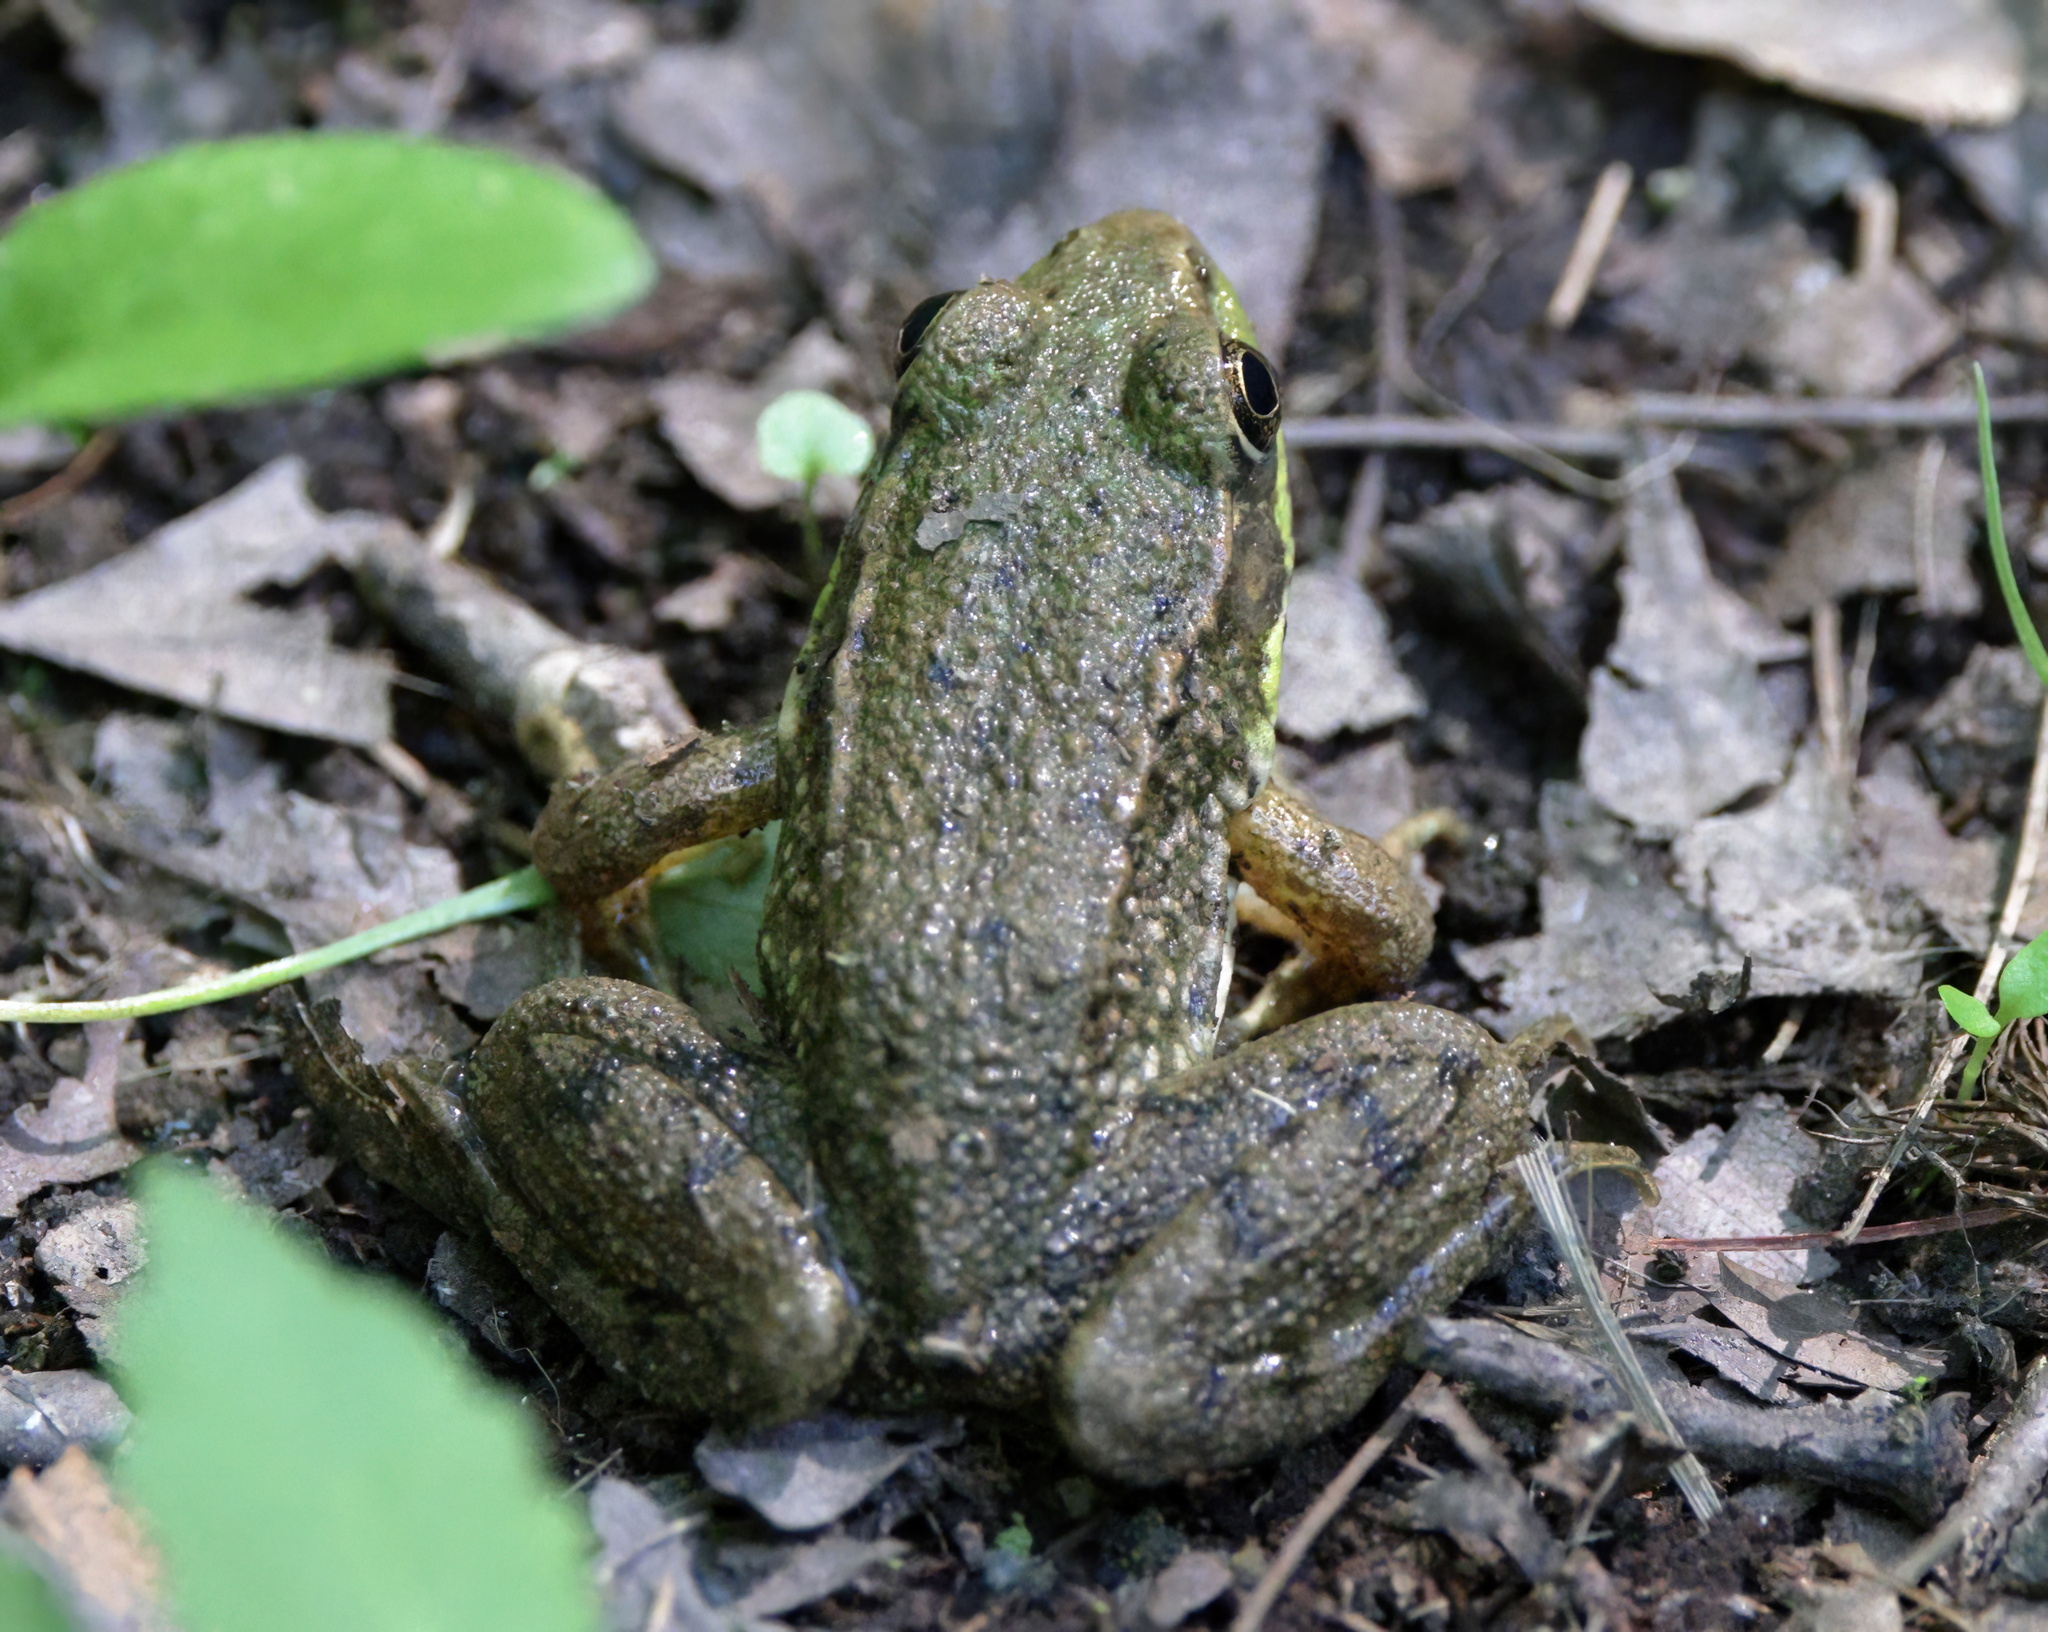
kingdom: Animalia
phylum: Chordata
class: Amphibia
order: Anura
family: Ranidae
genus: Lithobates
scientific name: Lithobates clamitans
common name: Green frog
